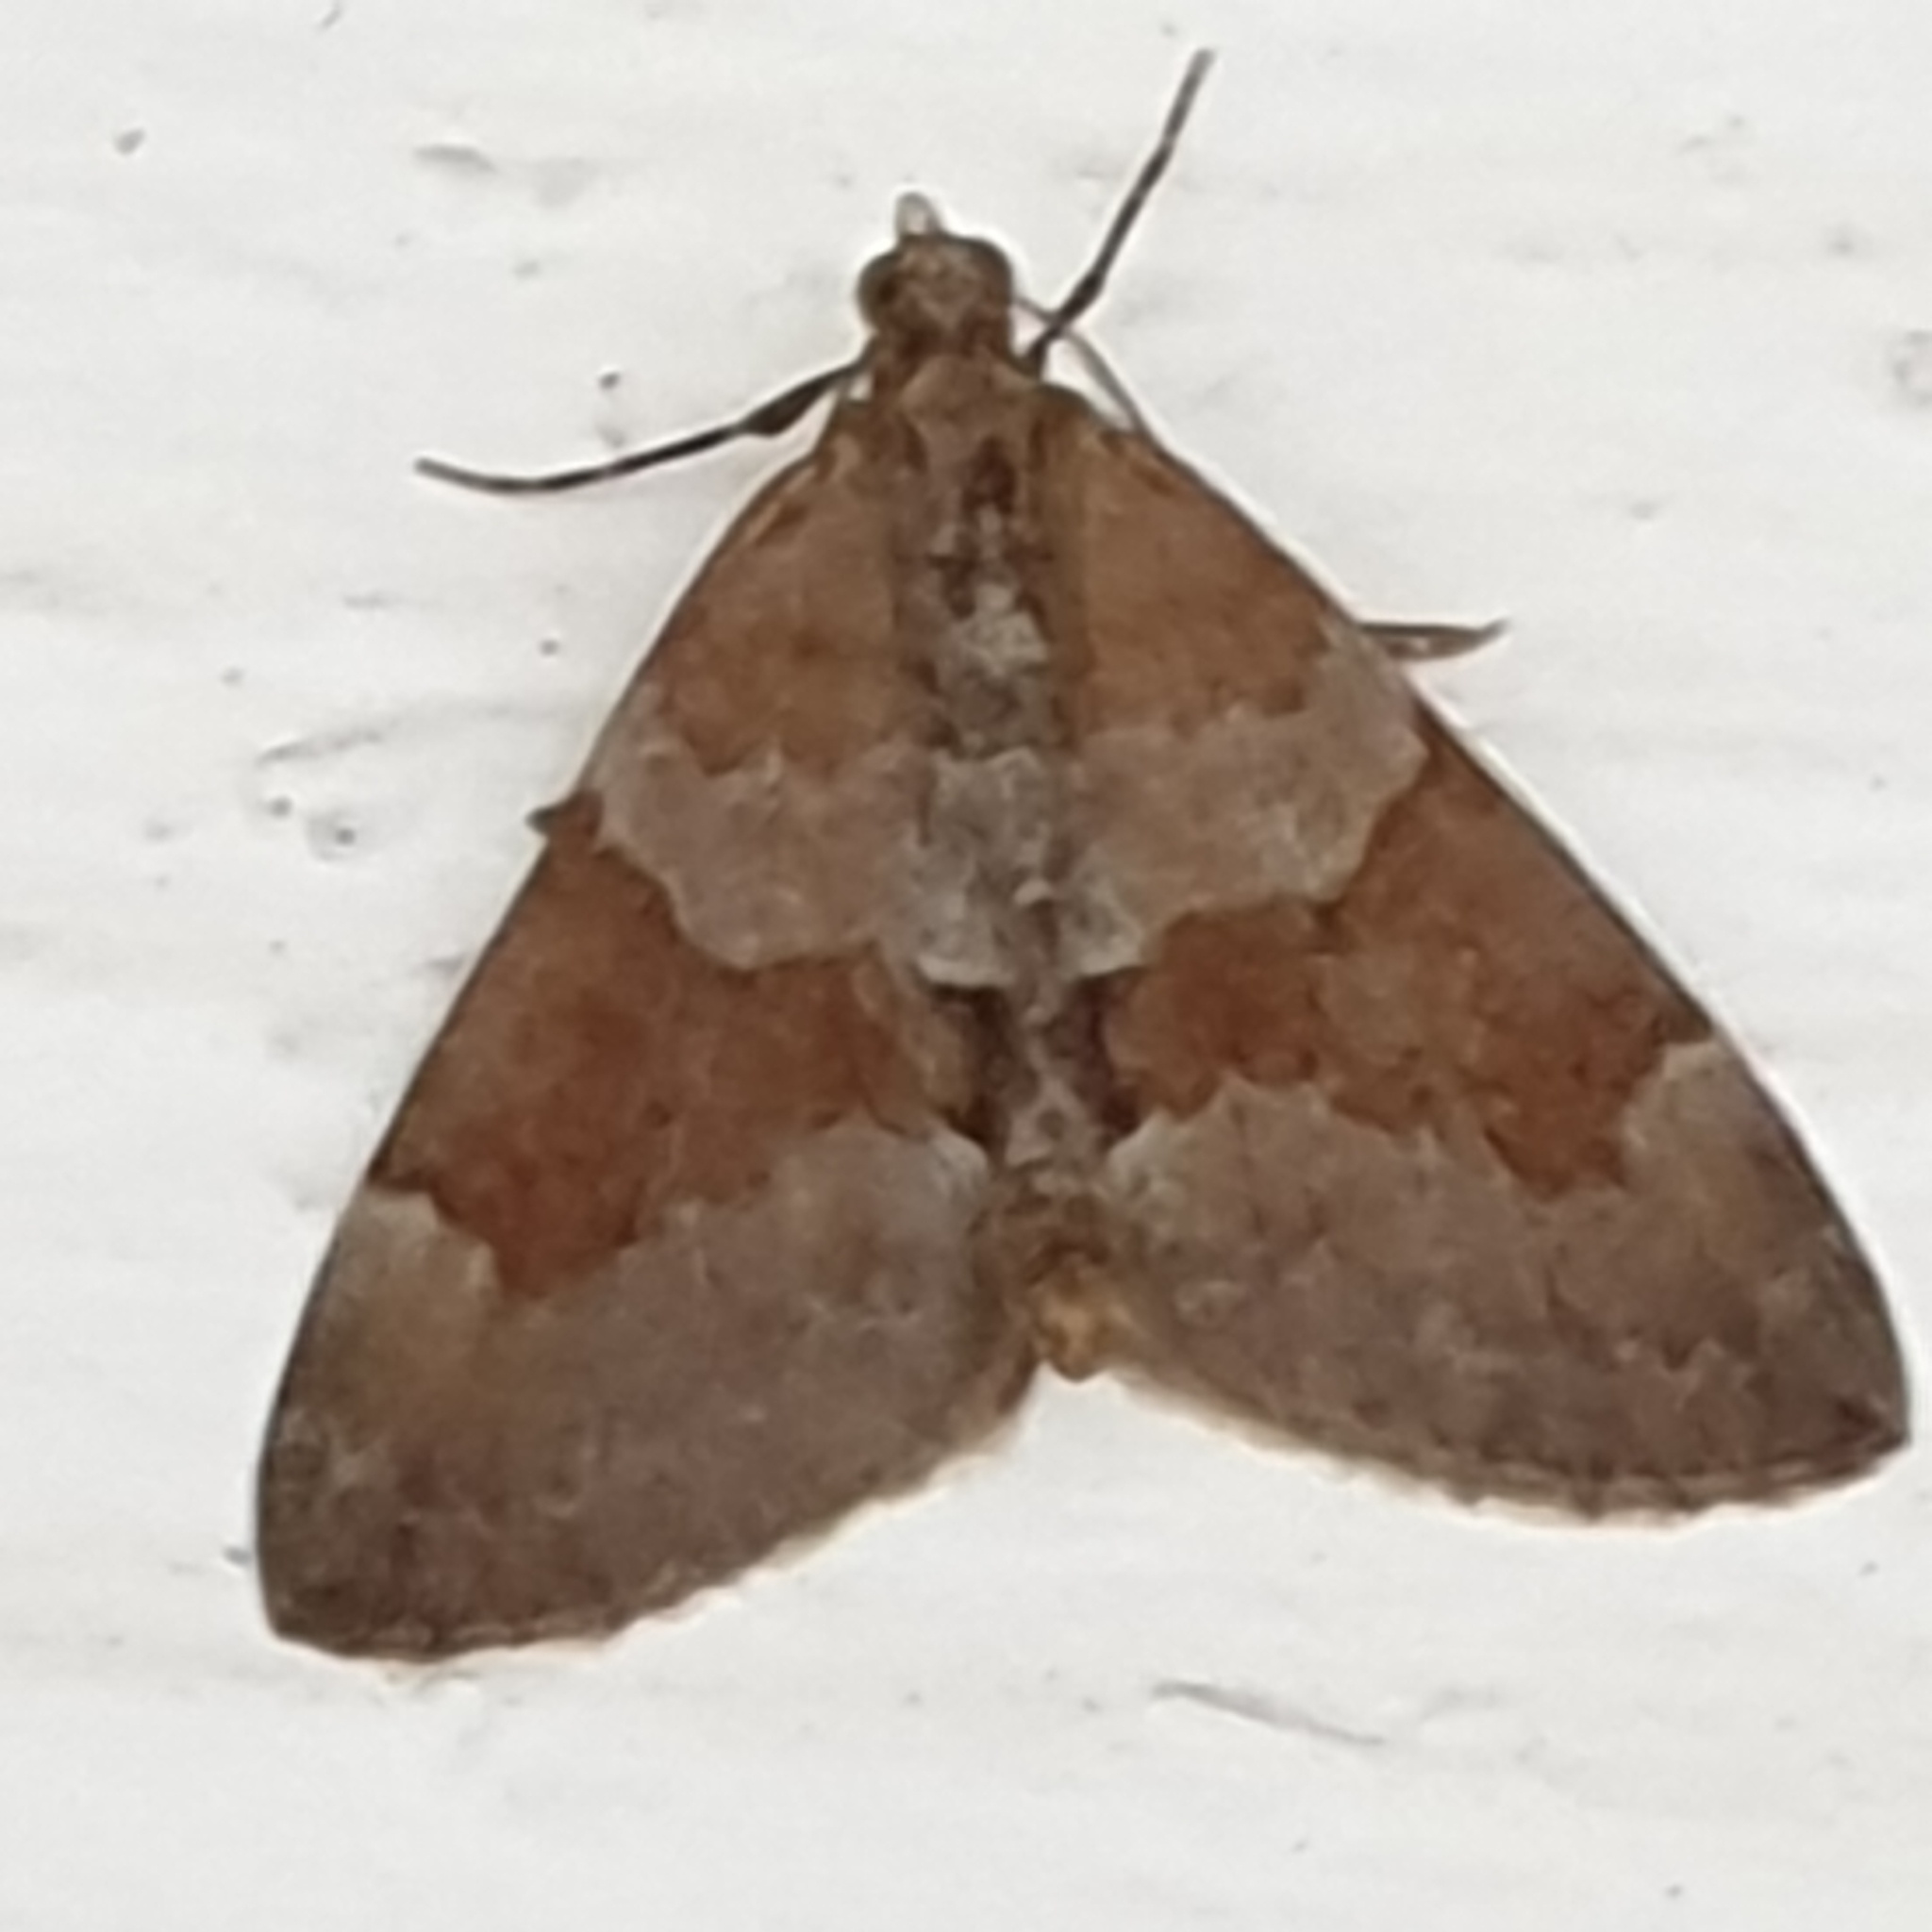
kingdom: Animalia
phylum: Arthropoda
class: Insecta
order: Lepidoptera
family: Geometridae
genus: Thera
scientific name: Thera obeliscata
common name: Grey pine carpet
